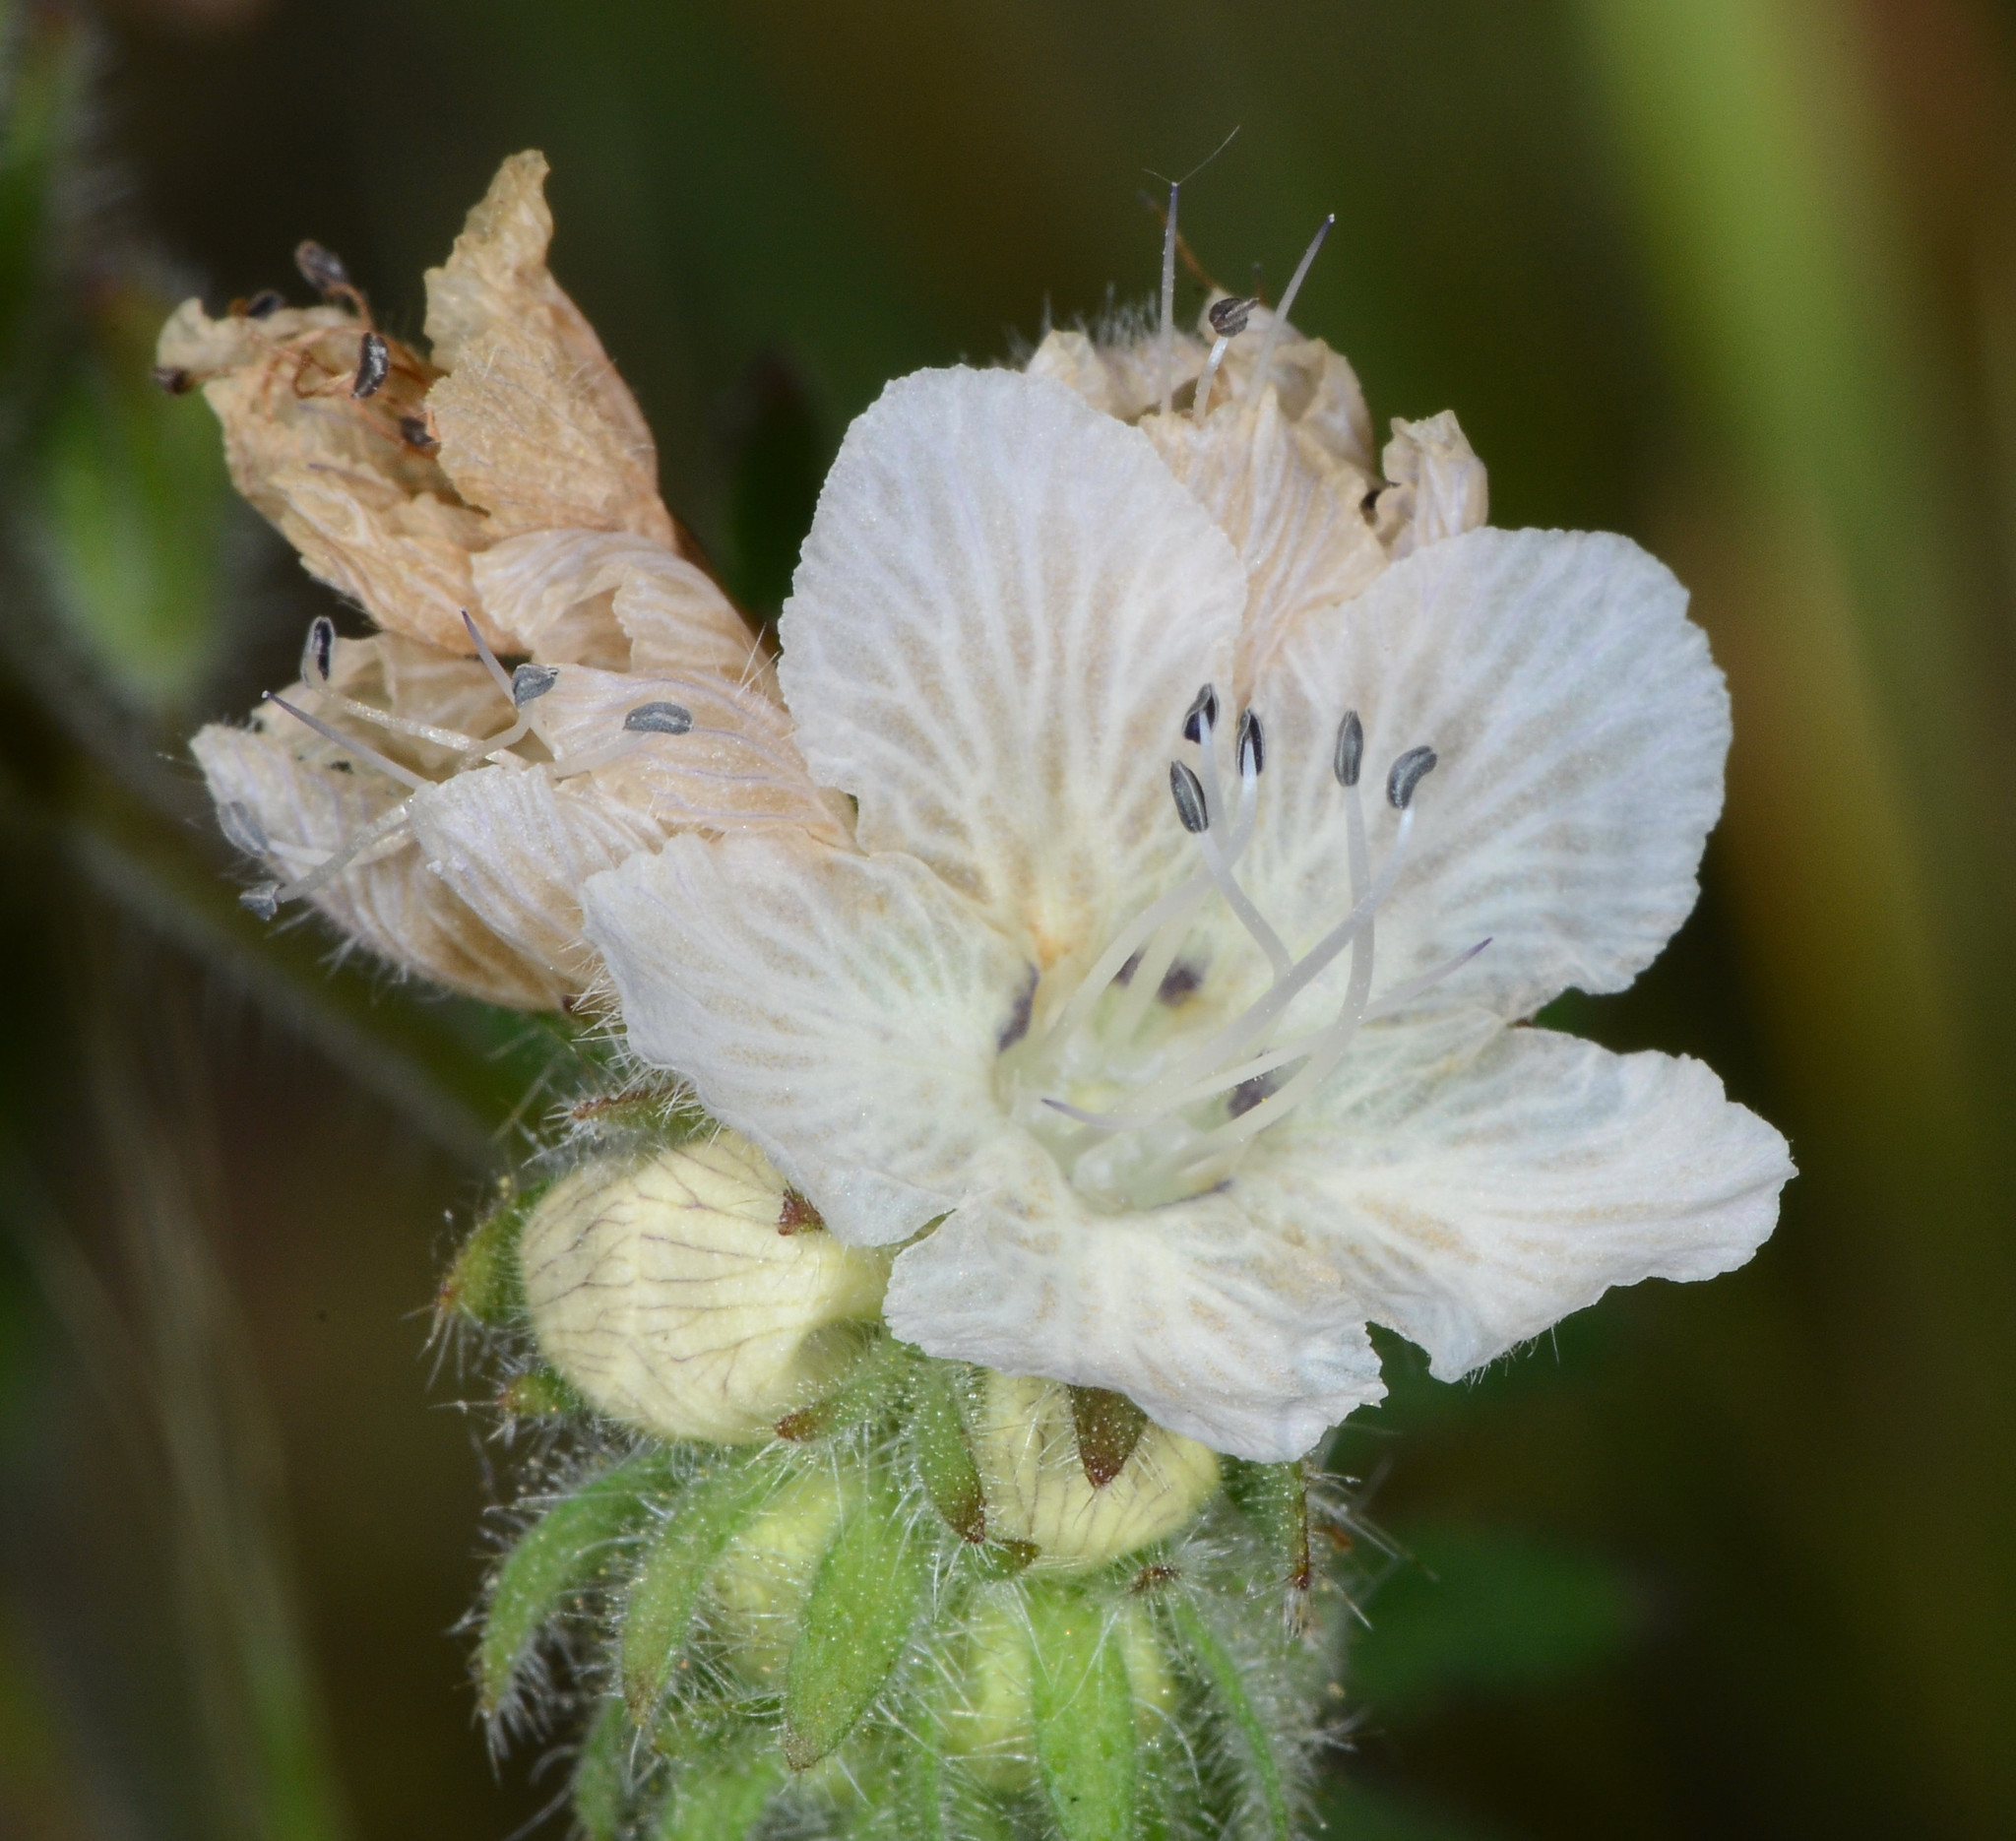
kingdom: Plantae
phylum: Tracheophyta
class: Magnoliopsida
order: Boraginales
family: Hydrophyllaceae
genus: Phacelia
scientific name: Phacelia distans
